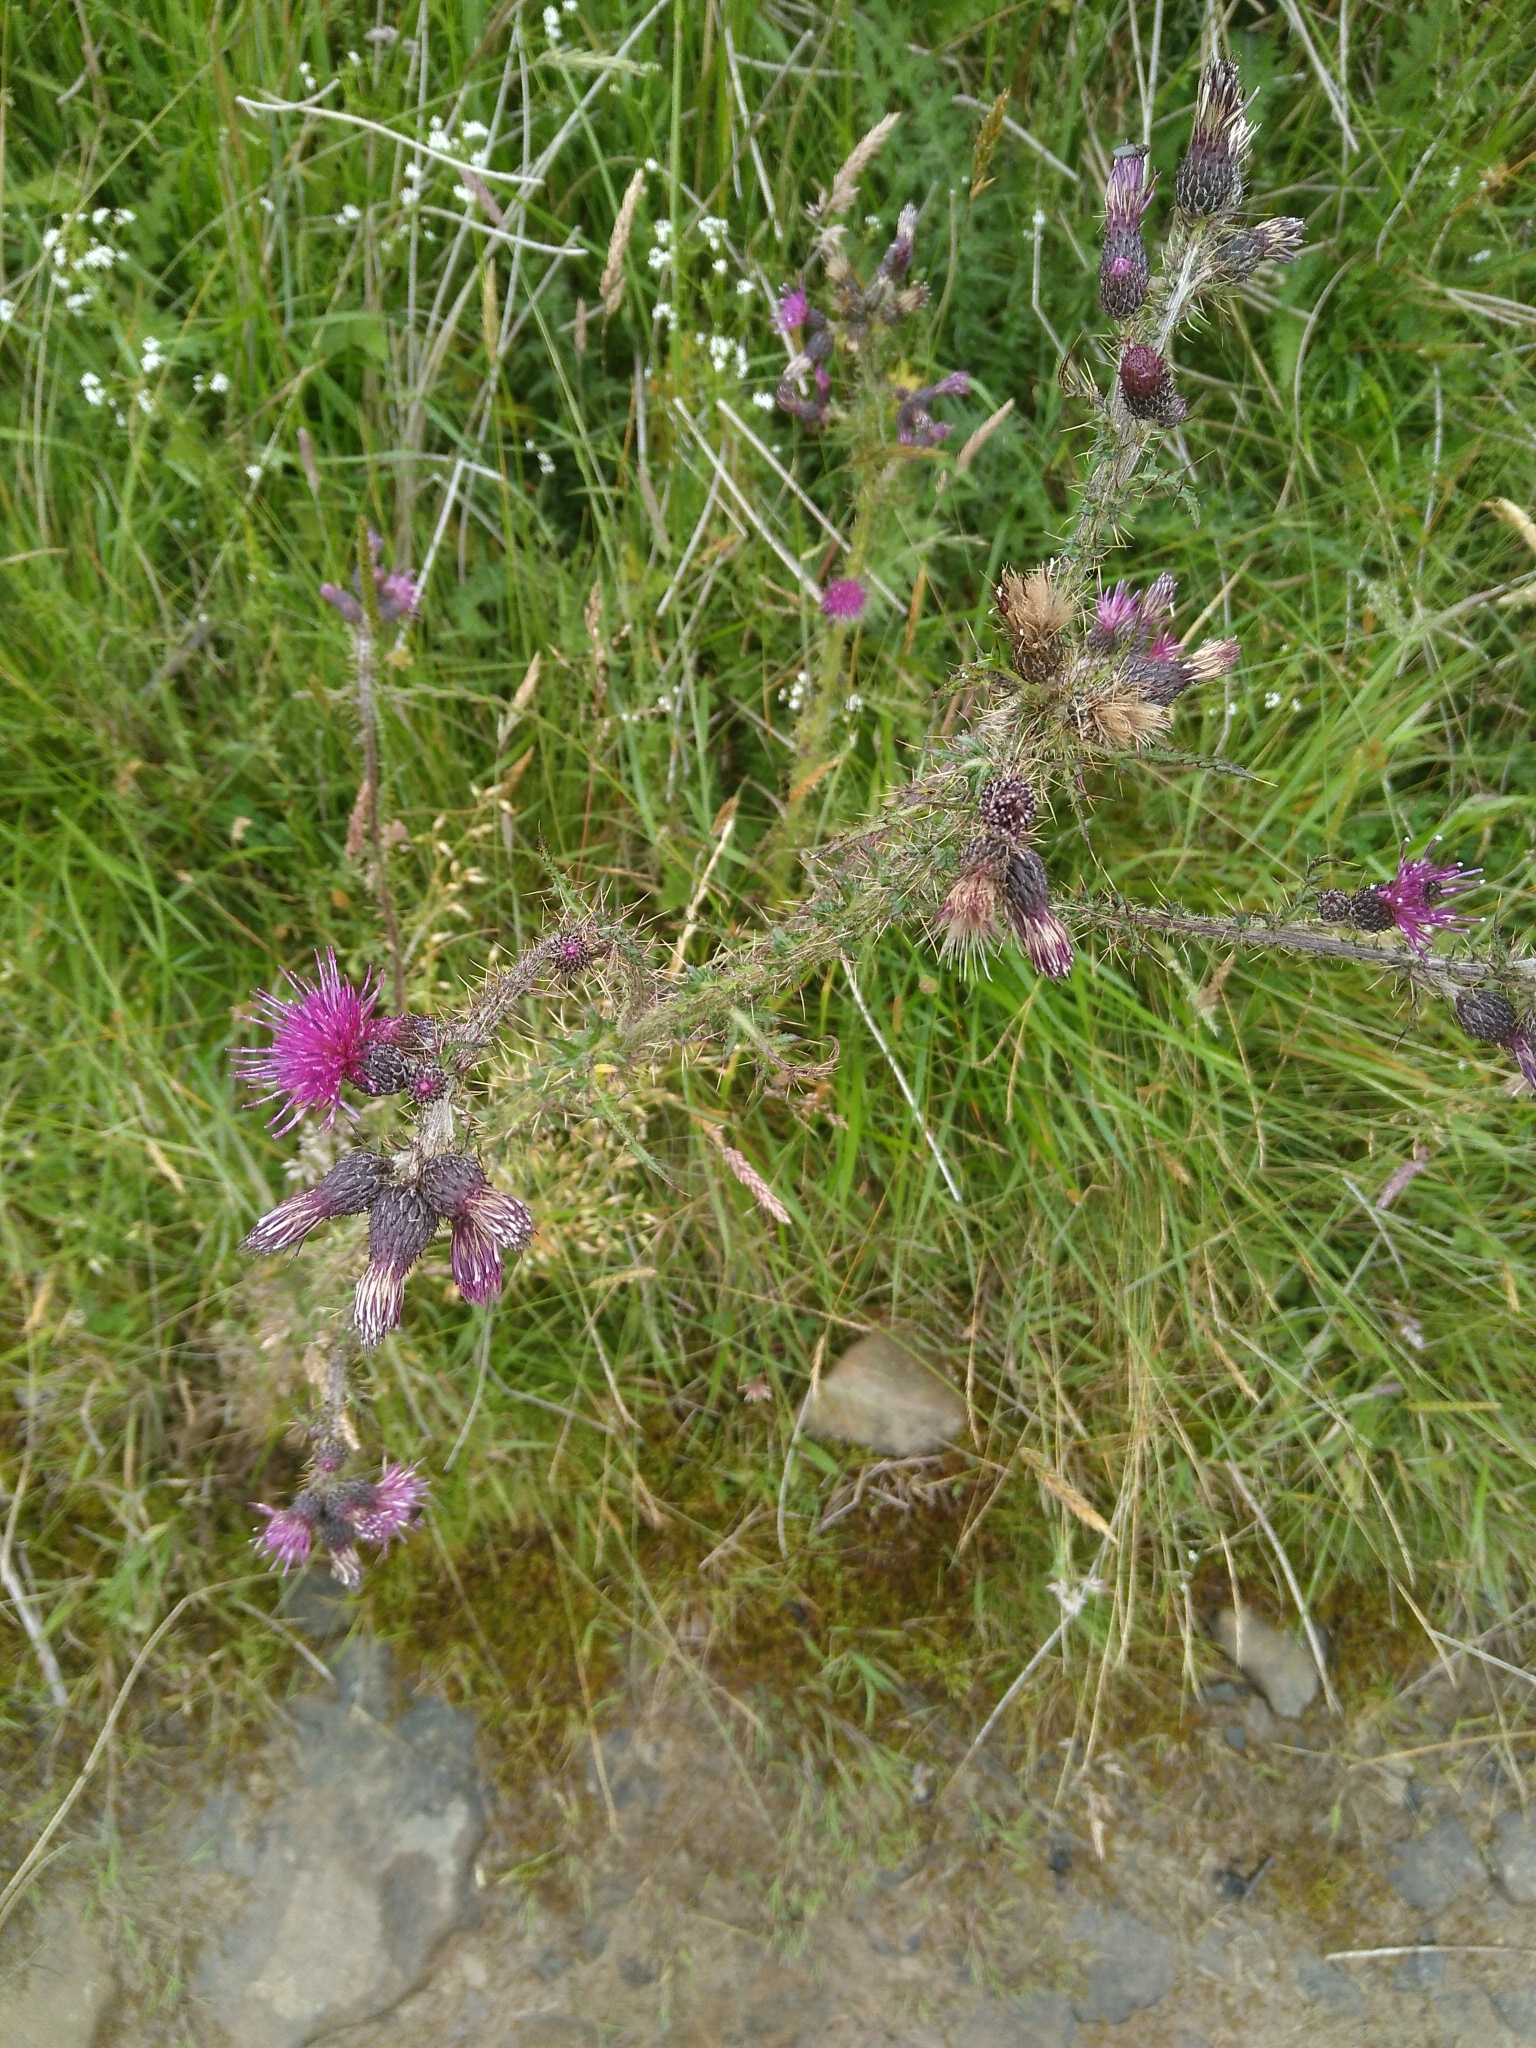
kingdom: Plantae
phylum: Tracheophyta
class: Magnoliopsida
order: Asterales
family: Asteraceae
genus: Cirsium
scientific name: Cirsium palustre
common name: Marsh thistle
